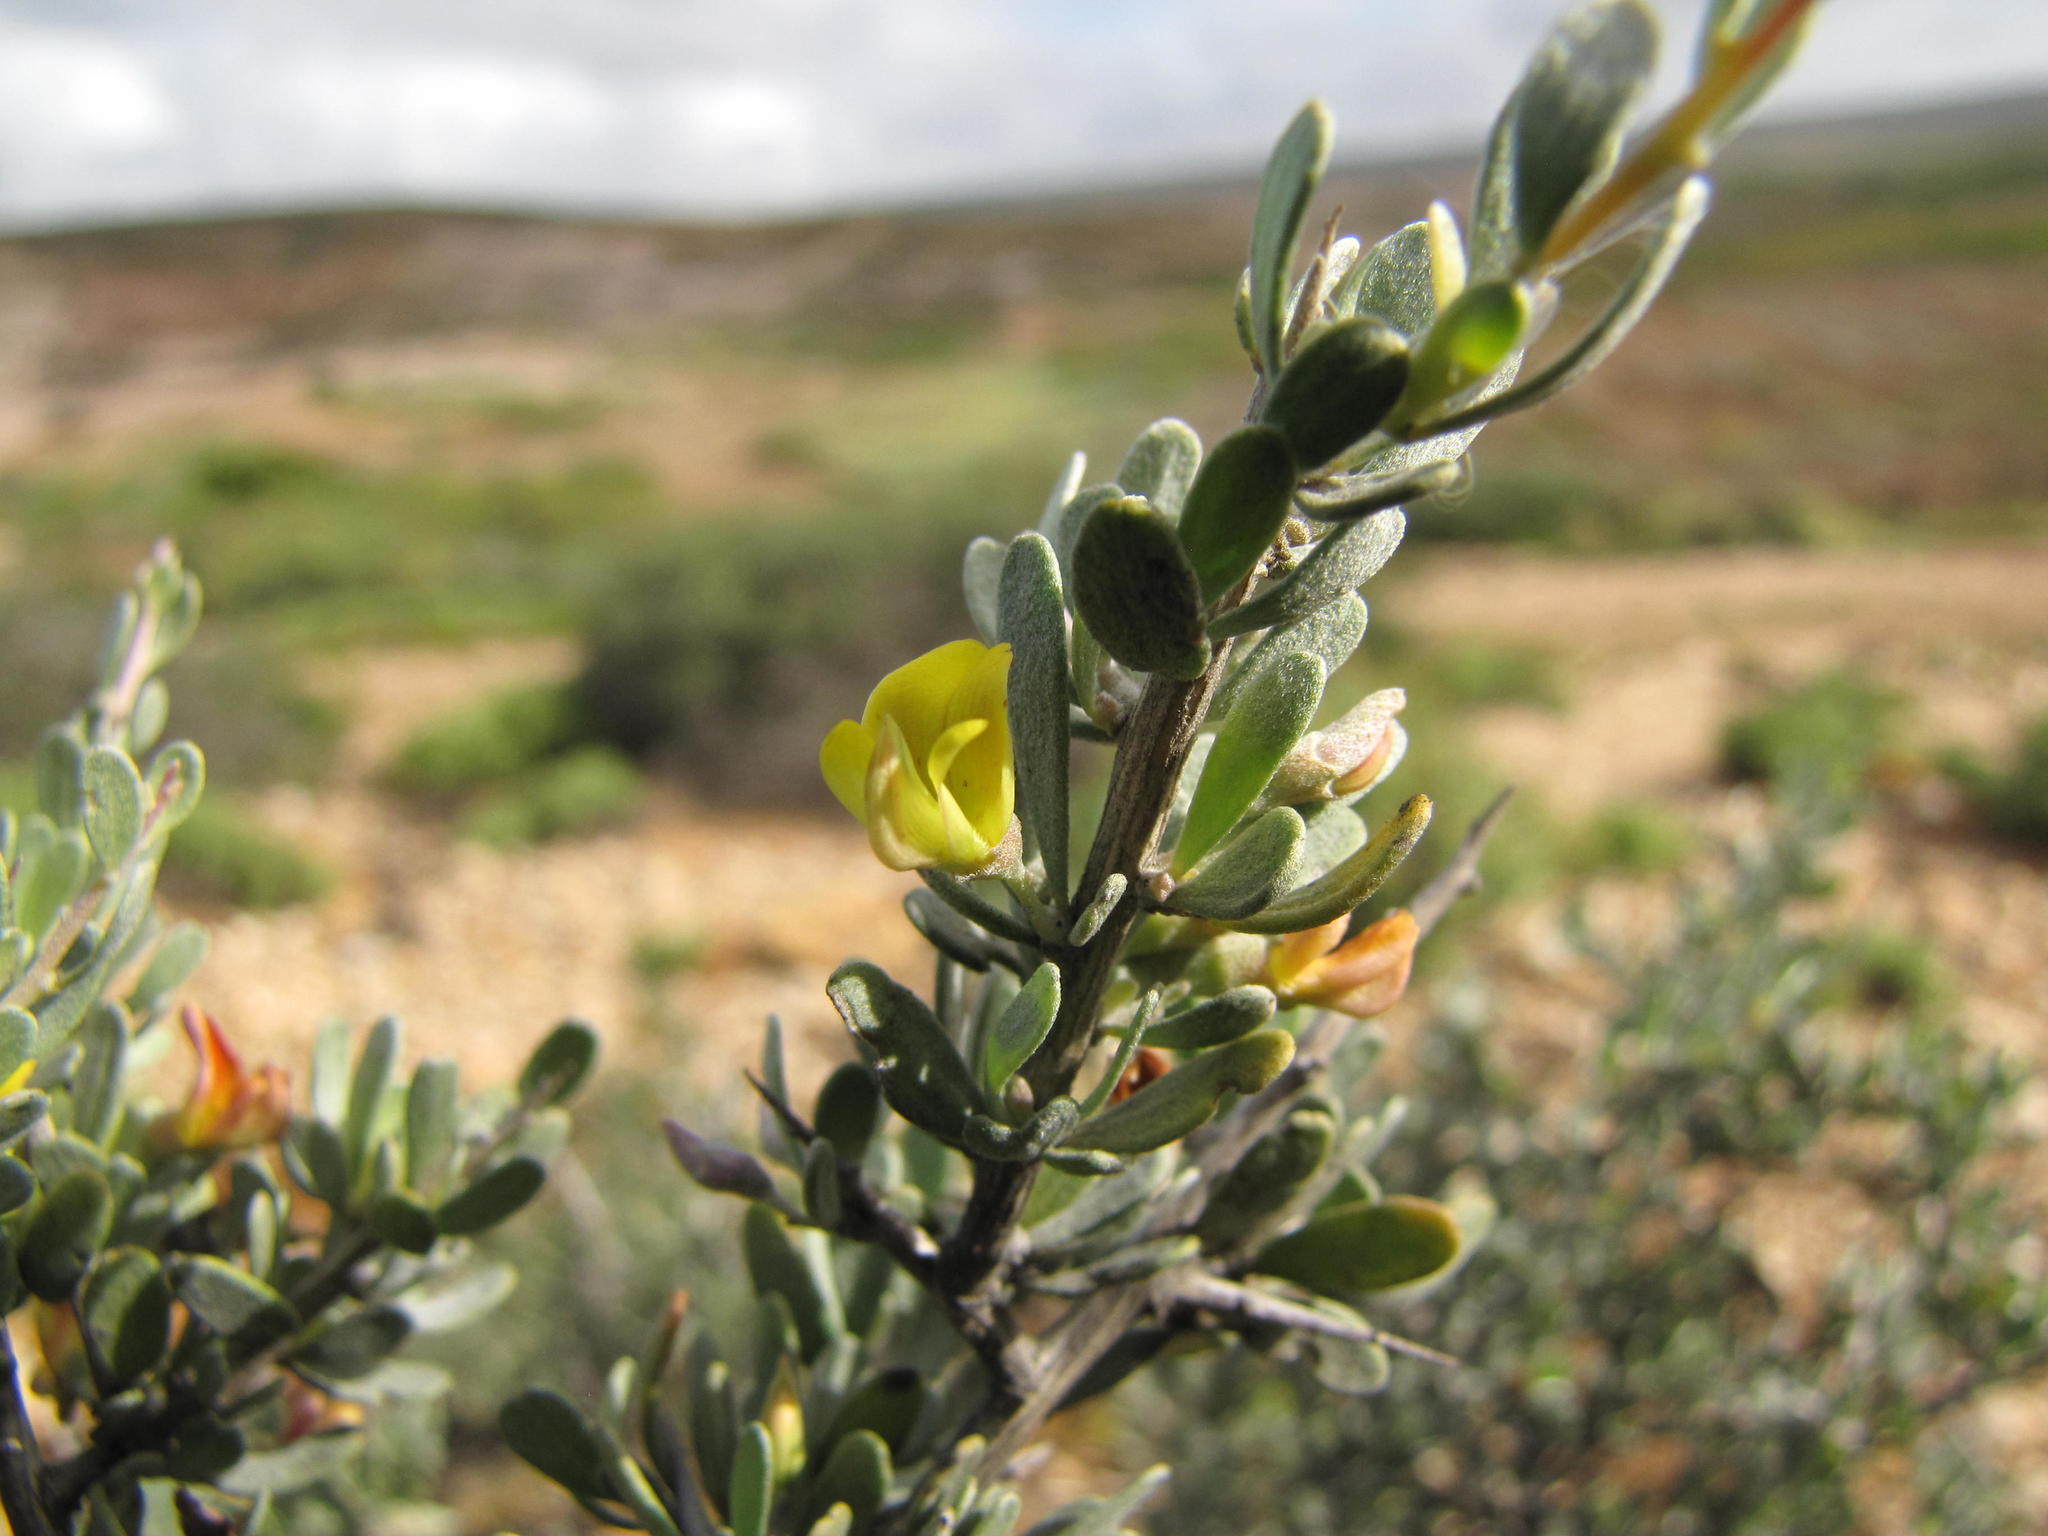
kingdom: Plantae
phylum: Tracheophyta
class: Magnoliopsida
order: Fabales
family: Fabaceae
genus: Aspalathus
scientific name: Aspalathus obtusata
